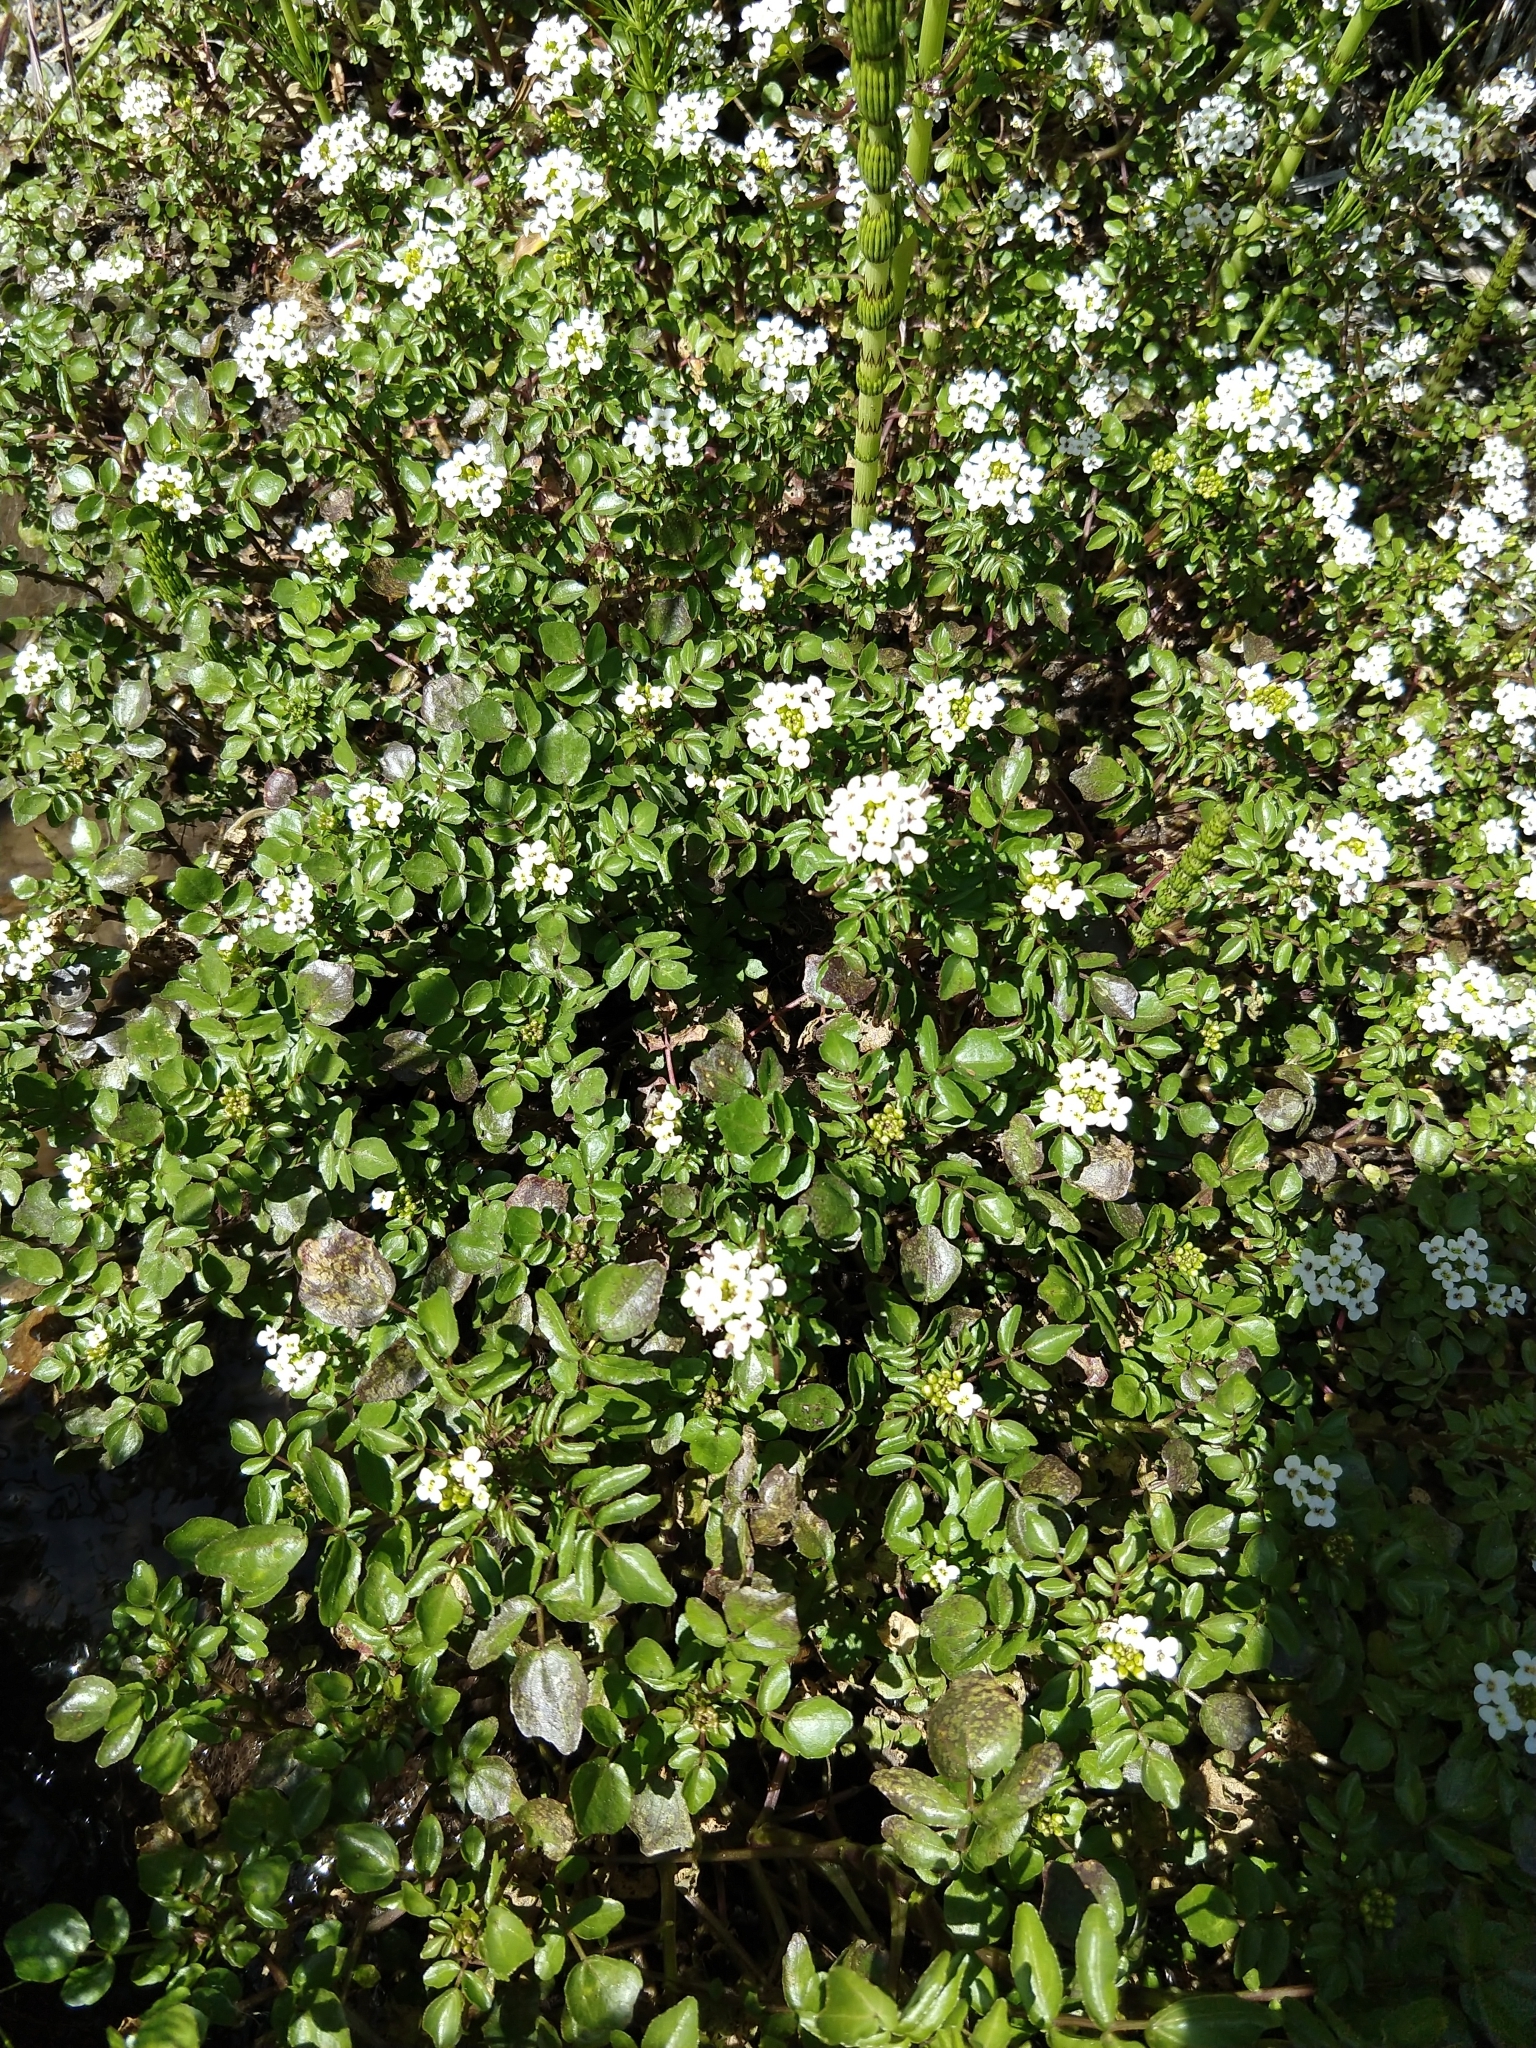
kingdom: Plantae
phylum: Tracheophyta
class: Magnoliopsida
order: Brassicales
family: Brassicaceae
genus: Nasturtium
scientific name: Nasturtium officinale
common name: Watercress
